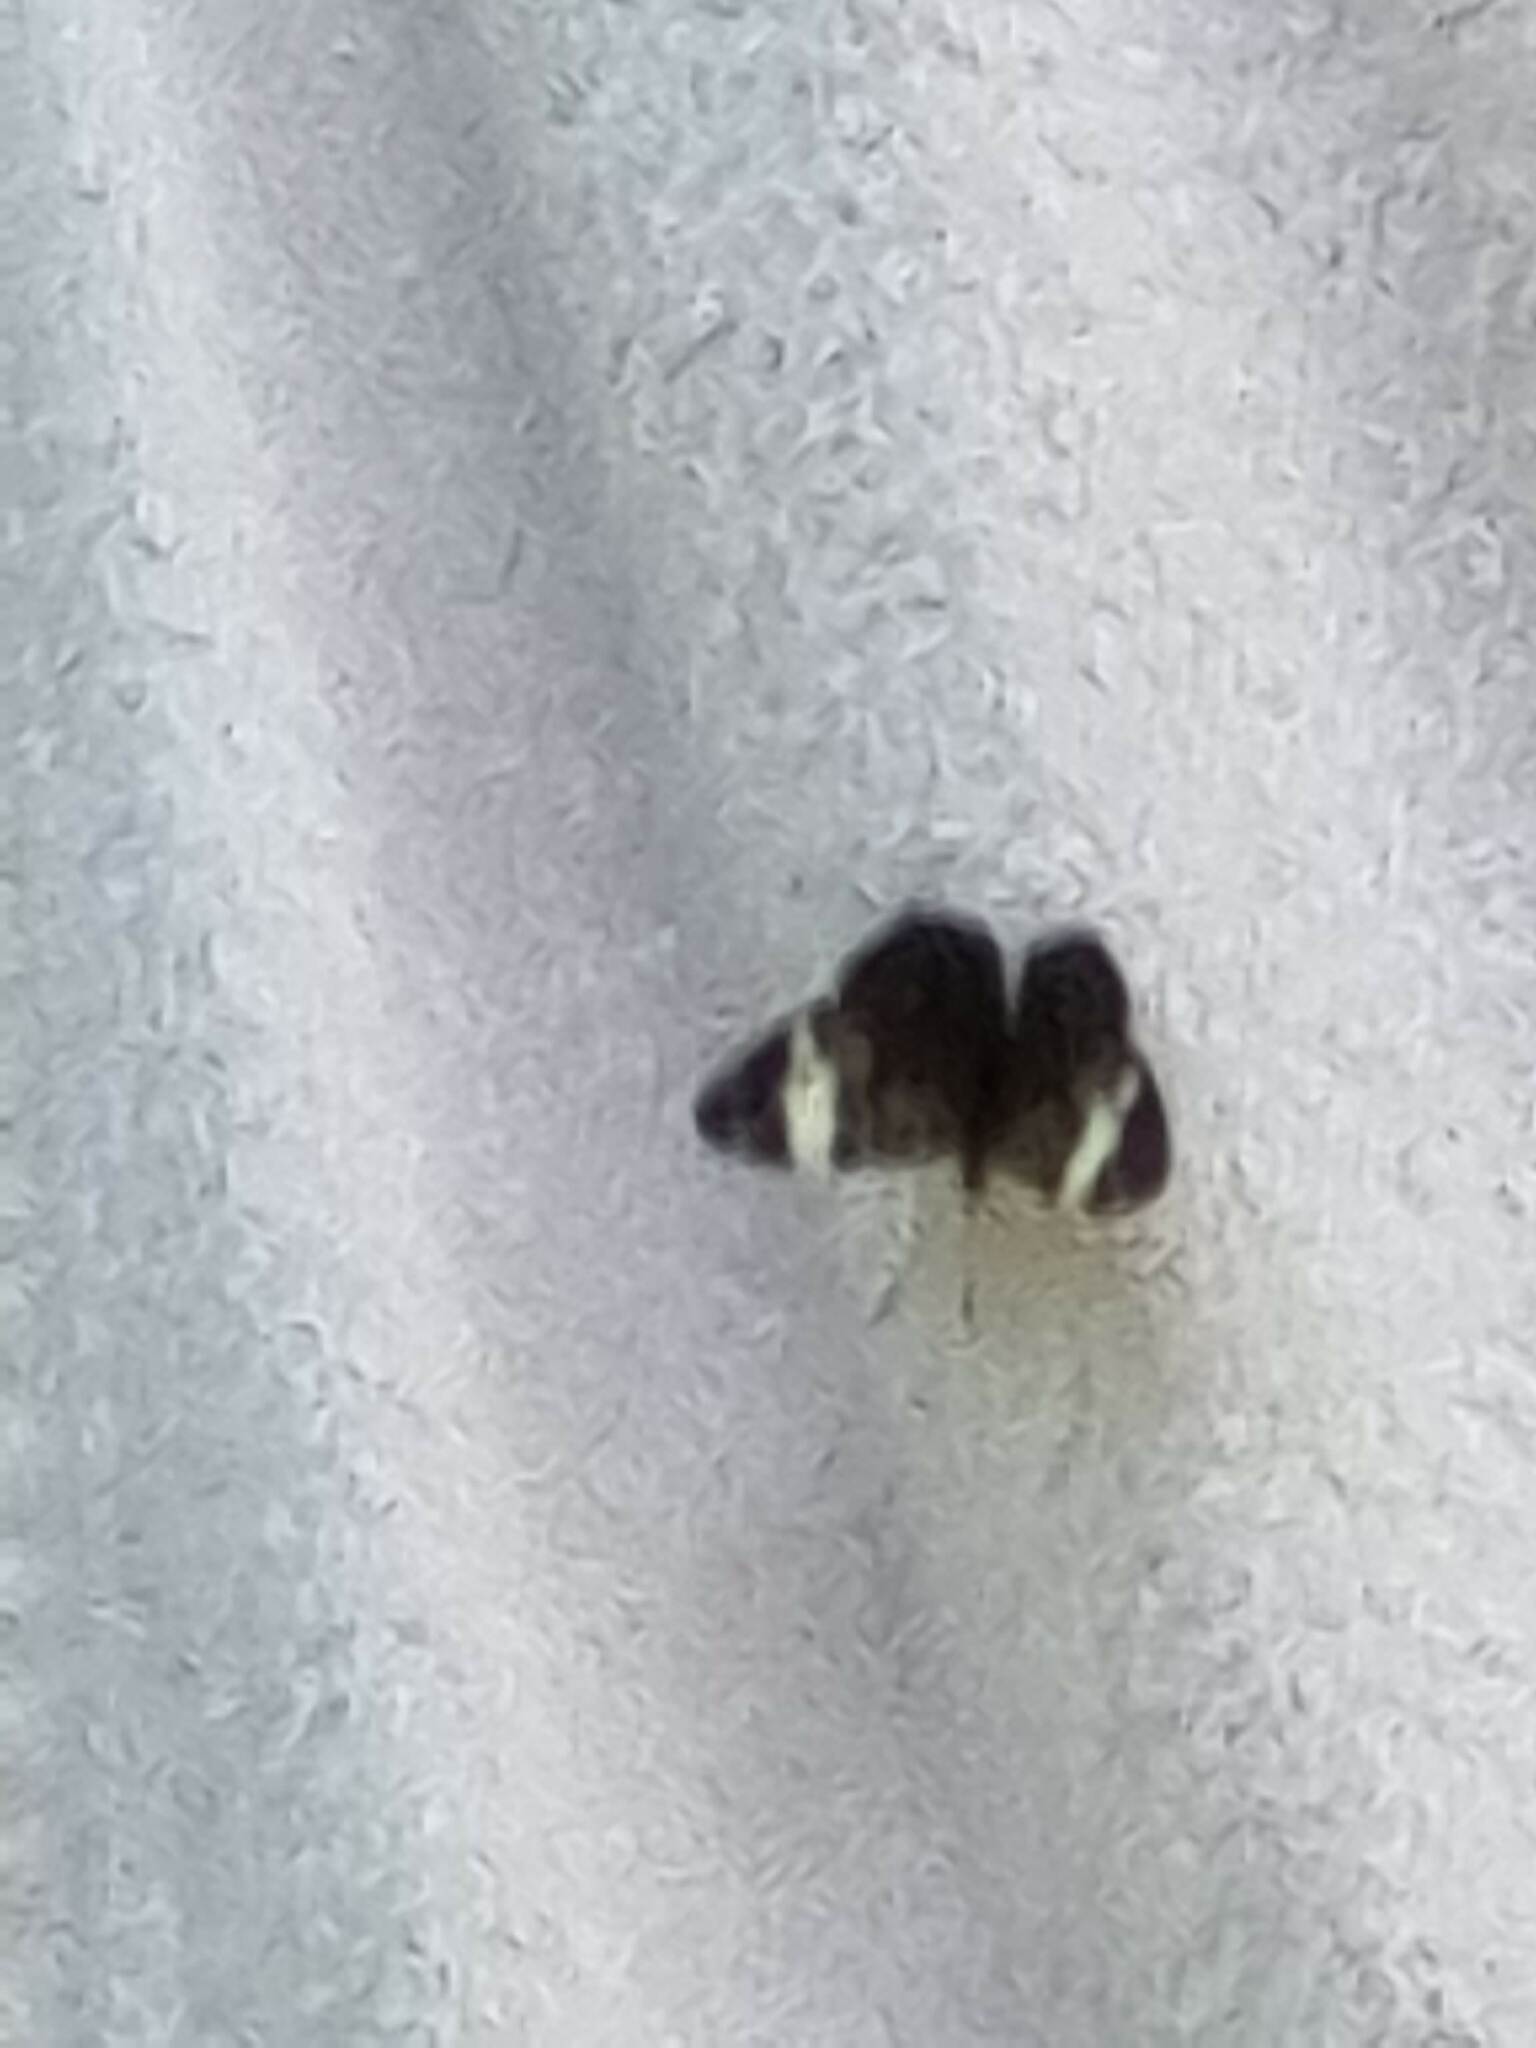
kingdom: Animalia
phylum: Arthropoda
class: Insecta
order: Lepidoptera
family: Nymphalidae
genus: Ectima
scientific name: Ectima thecla
